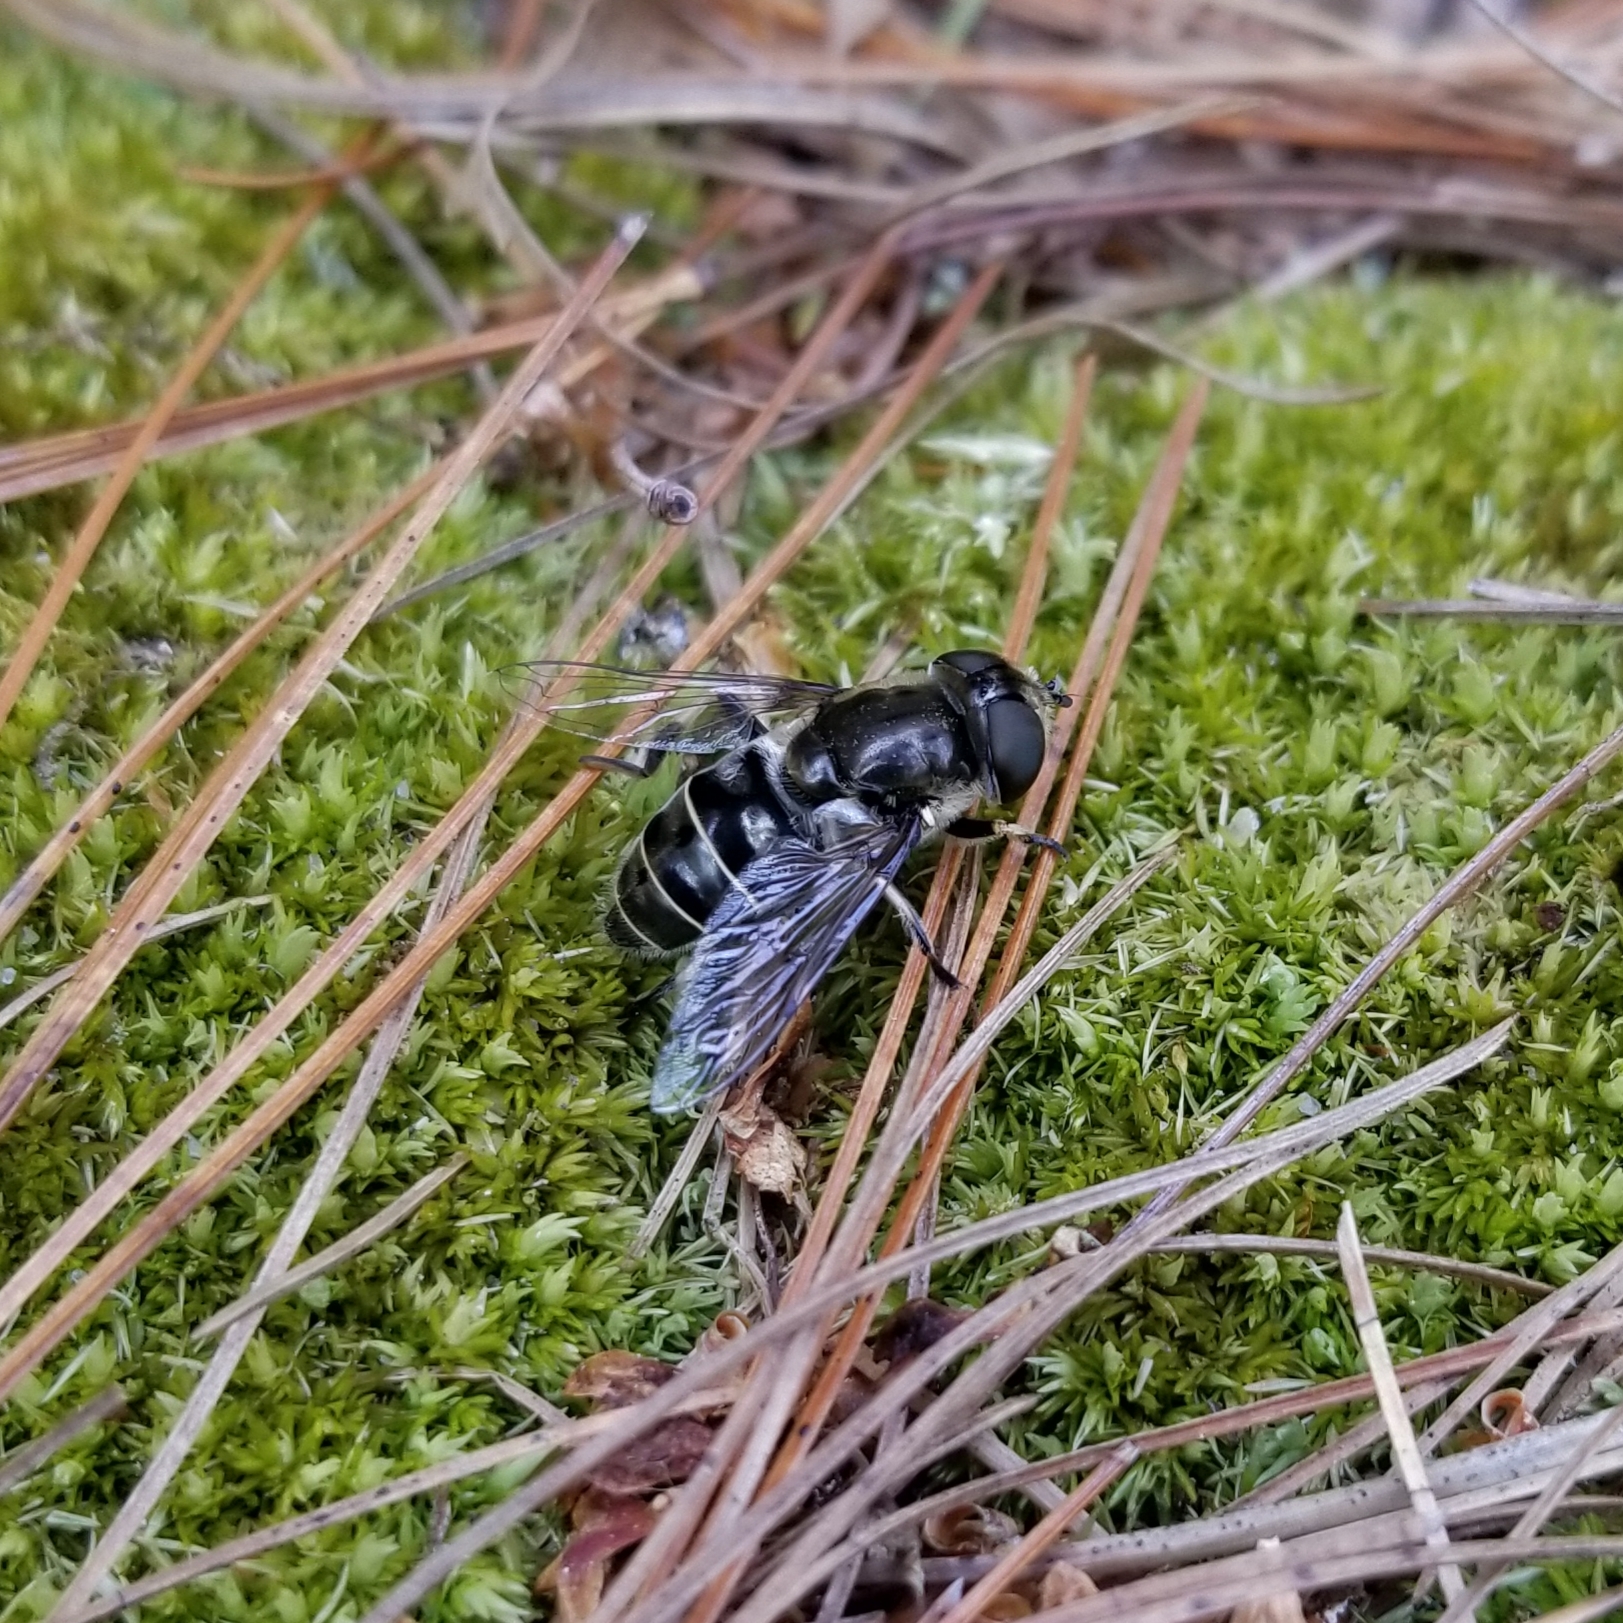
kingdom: Animalia
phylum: Arthropoda
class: Insecta
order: Diptera
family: Syrphidae
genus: Eristalis
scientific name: Eristalis dimidiata
